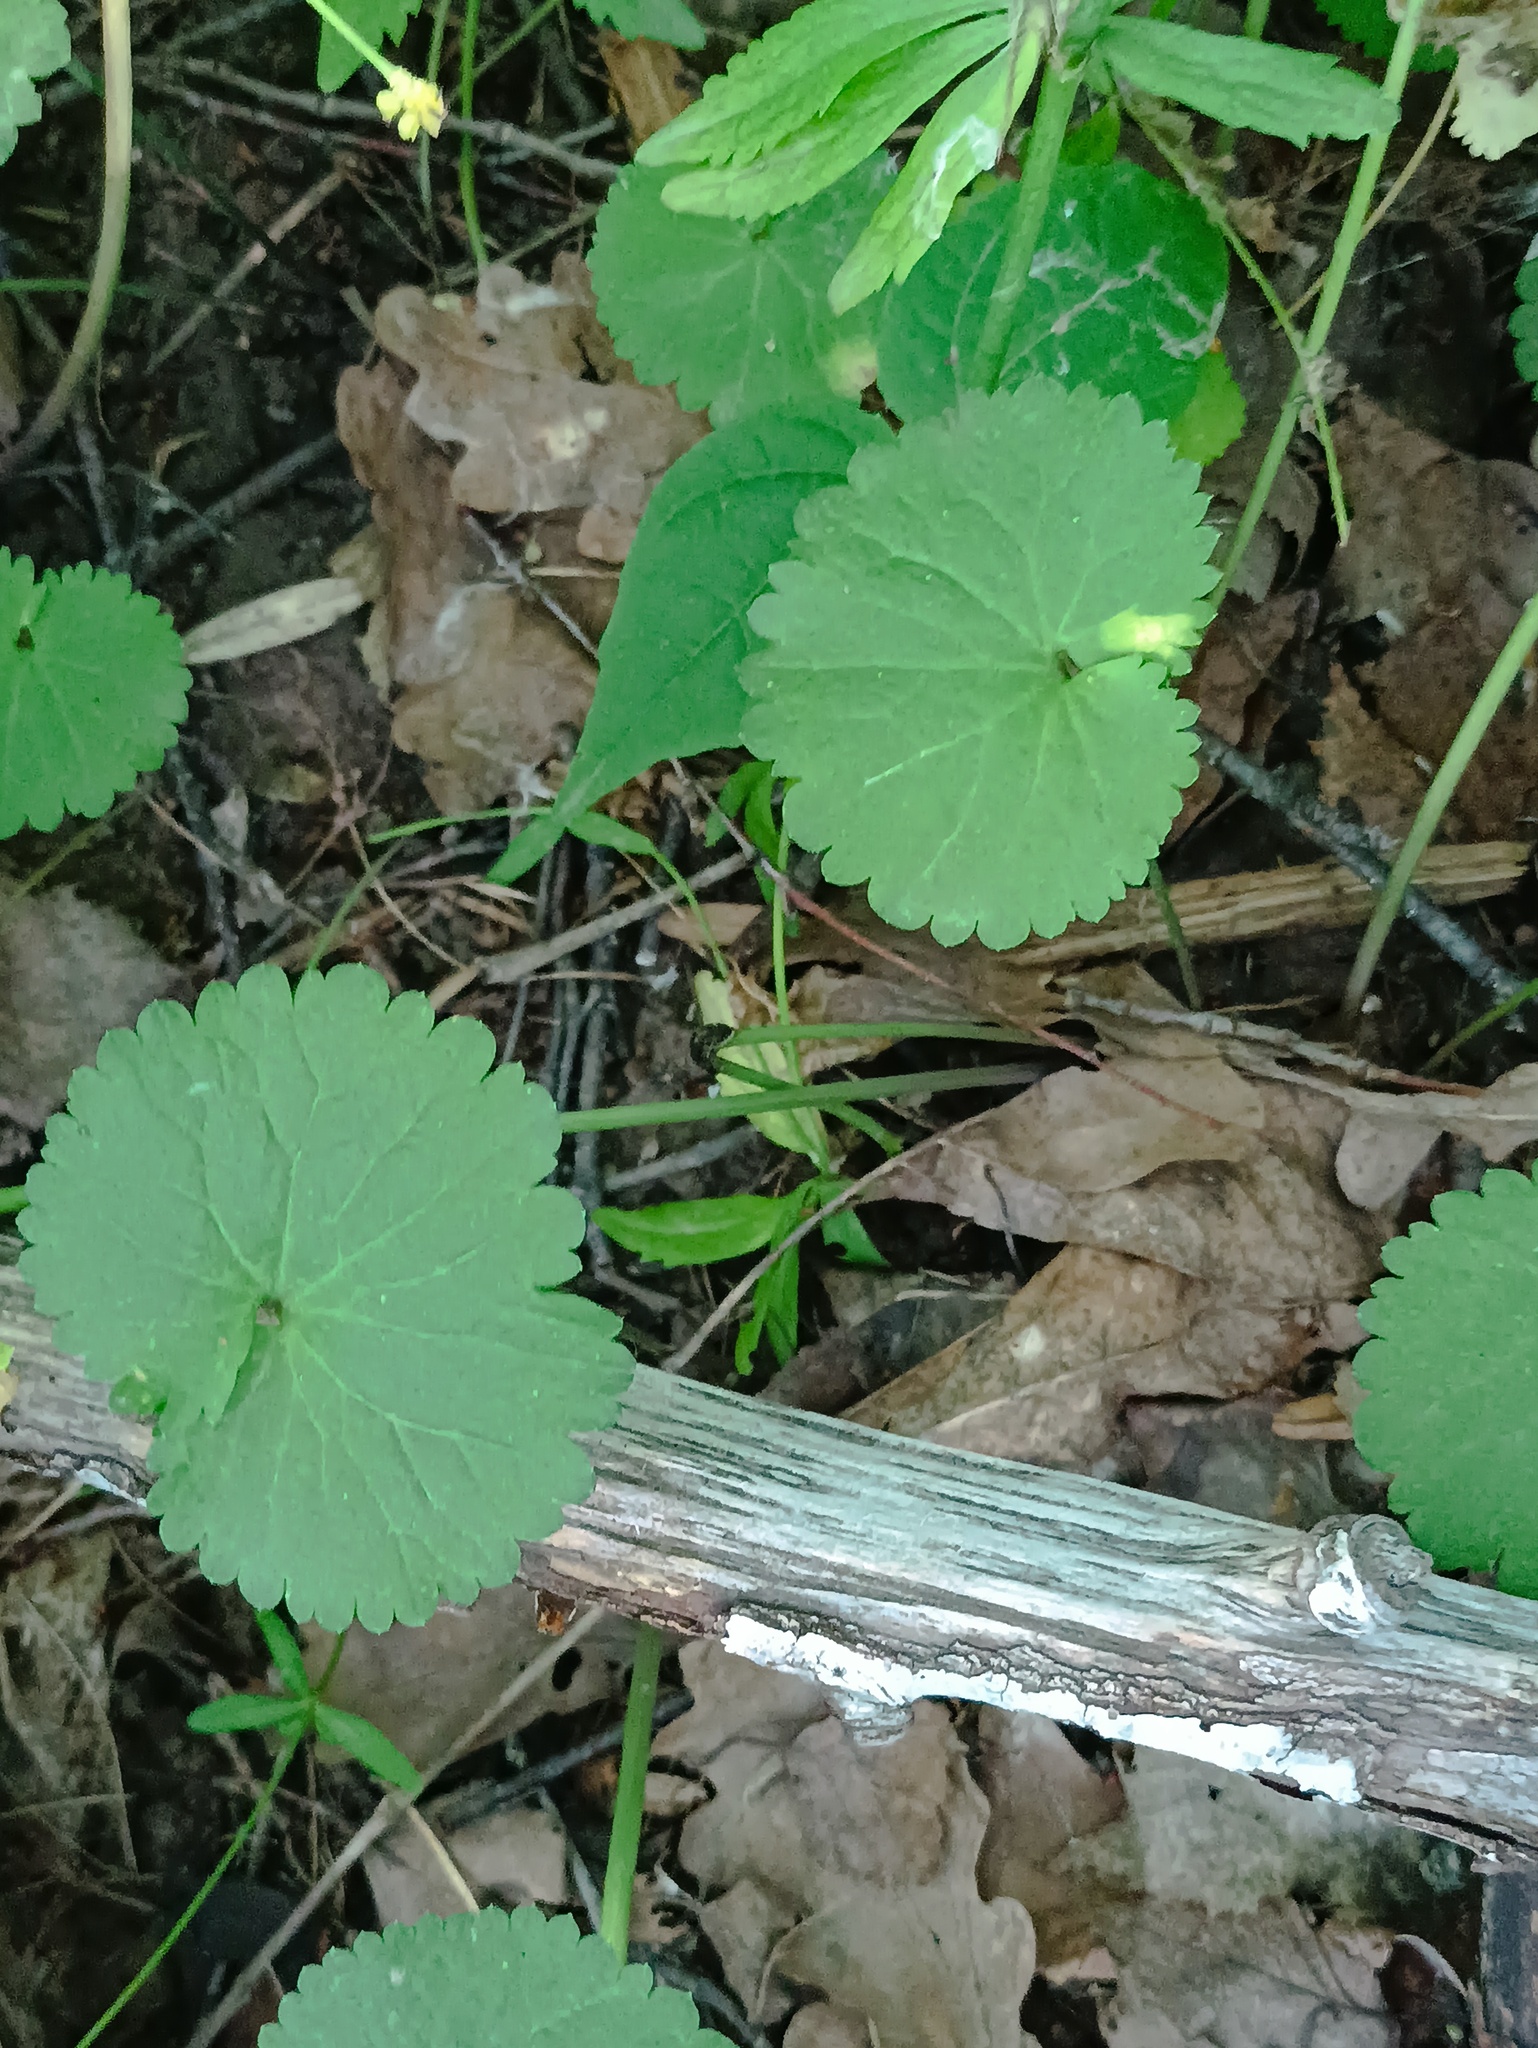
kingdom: Plantae
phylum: Tracheophyta
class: Magnoliopsida
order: Ranunculales
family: Ranunculaceae
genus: Ranunculus
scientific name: Ranunculus cassubicus
